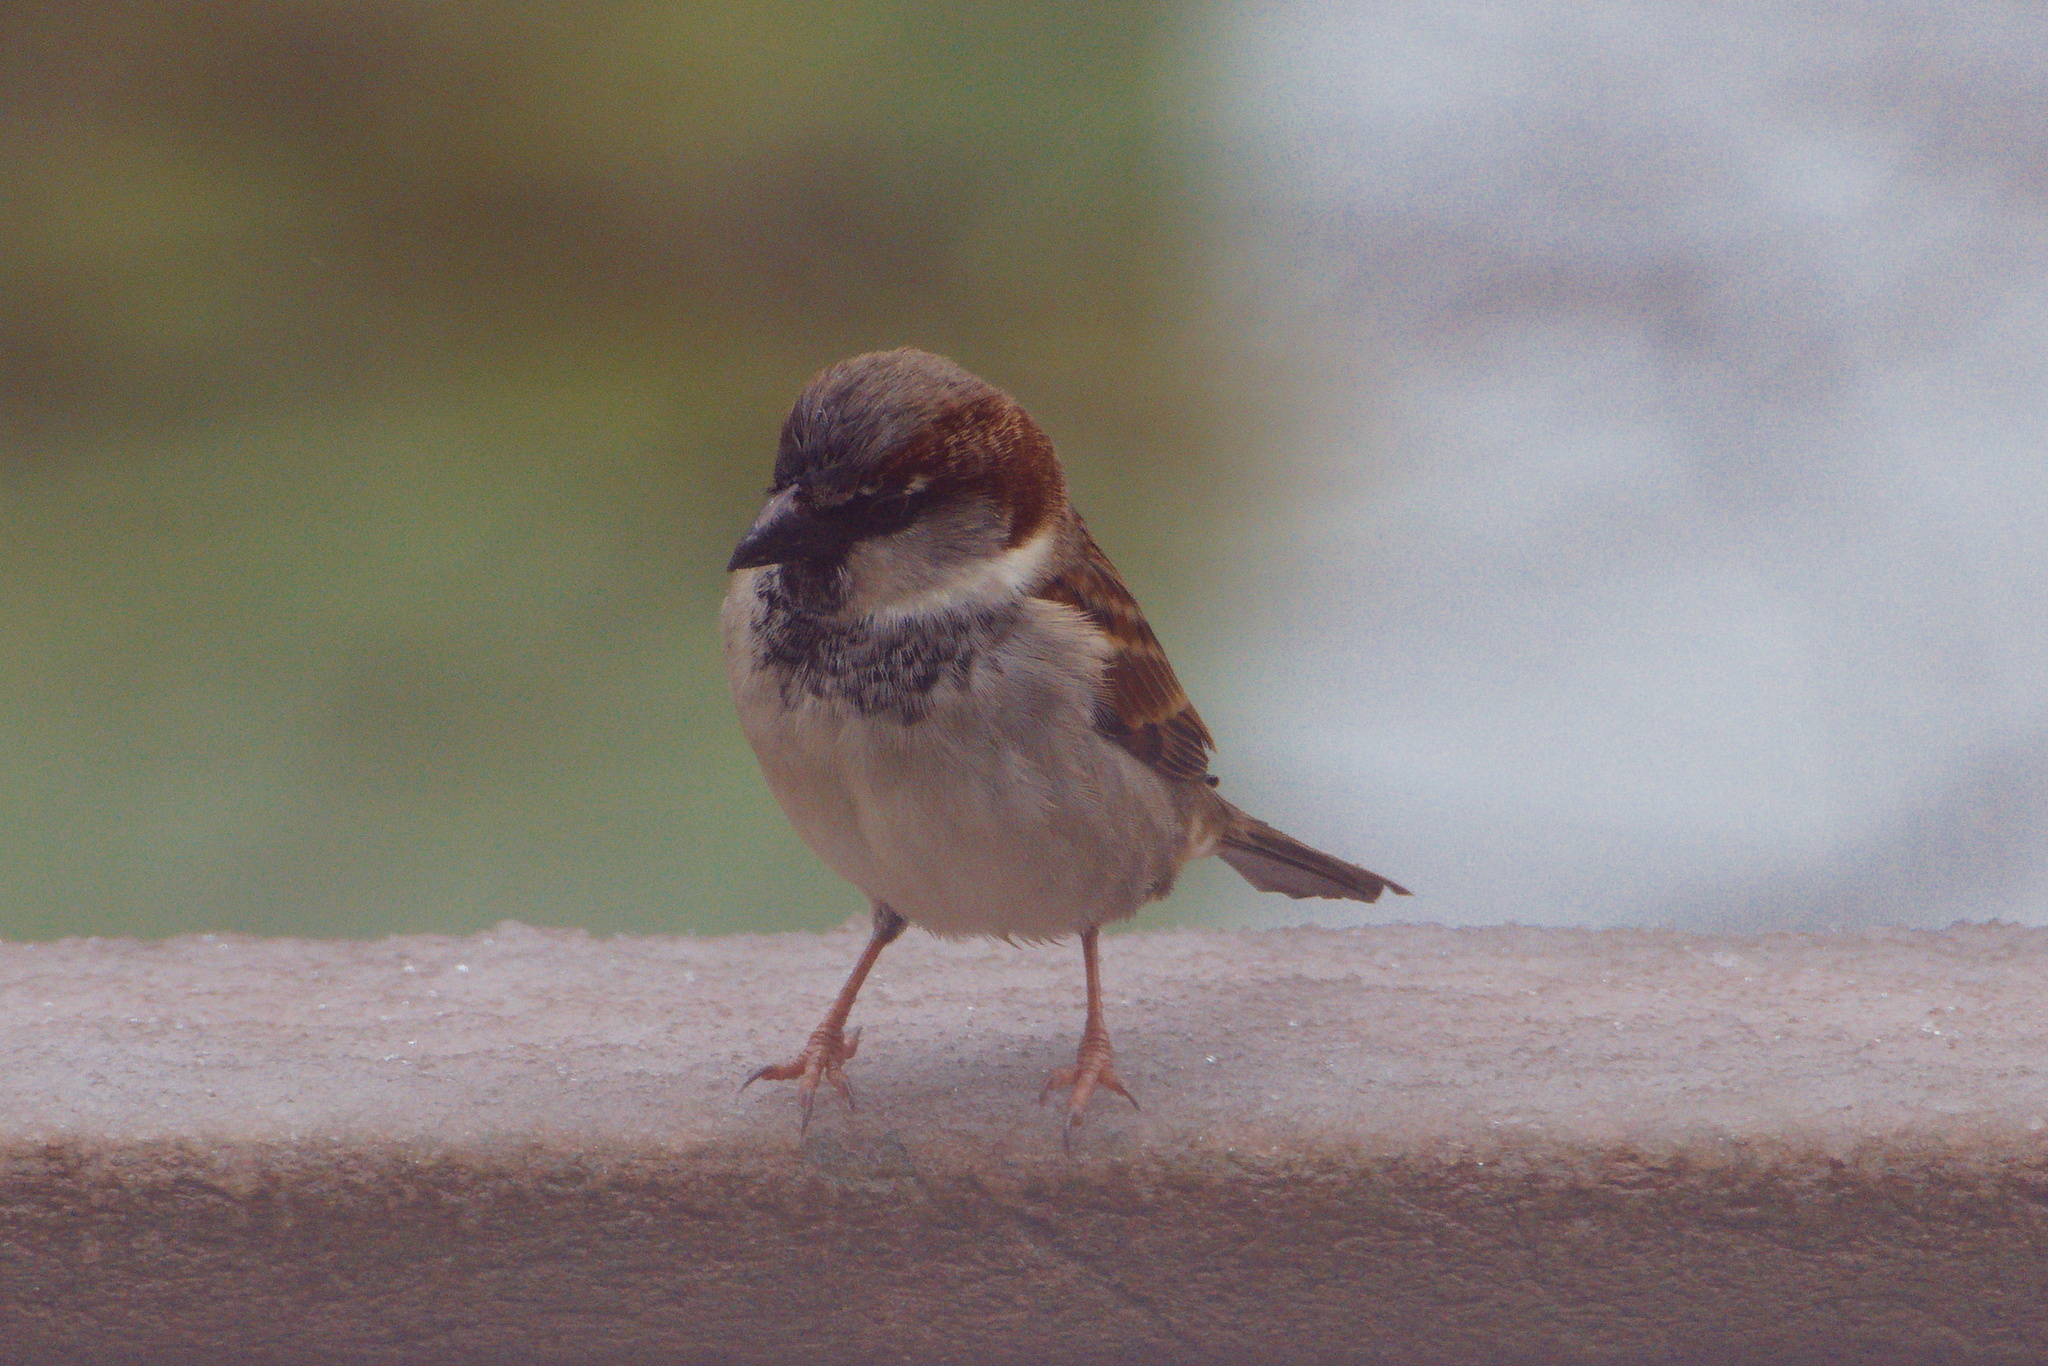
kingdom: Animalia
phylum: Chordata
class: Aves
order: Passeriformes
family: Passeridae
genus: Passer
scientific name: Passer domesticus
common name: House sparrow
